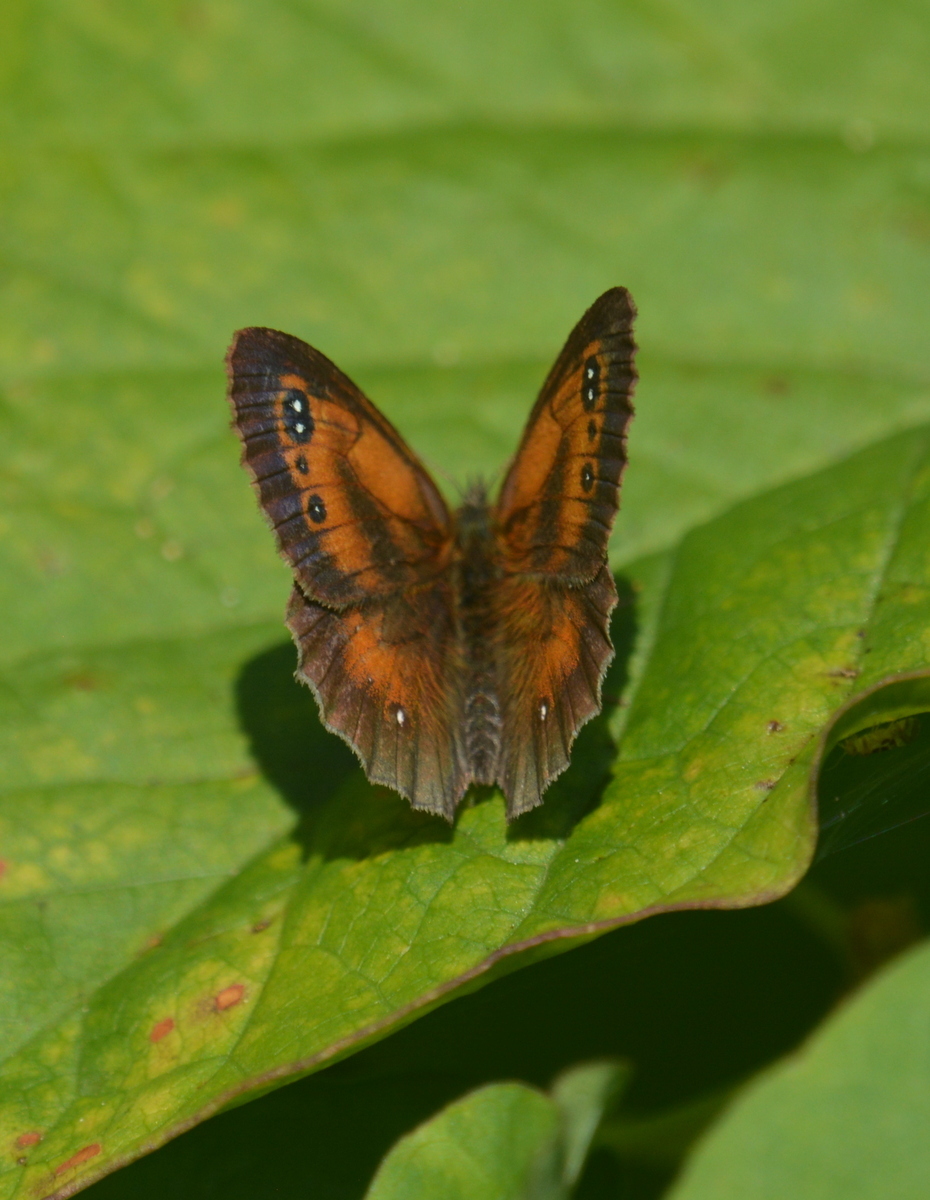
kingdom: Animalia
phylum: Arthropoda
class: Insecta
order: Lepidoptera
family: Nymphalidae
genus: Pyronia
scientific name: Pyronia tithonus
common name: Gatekeeper
